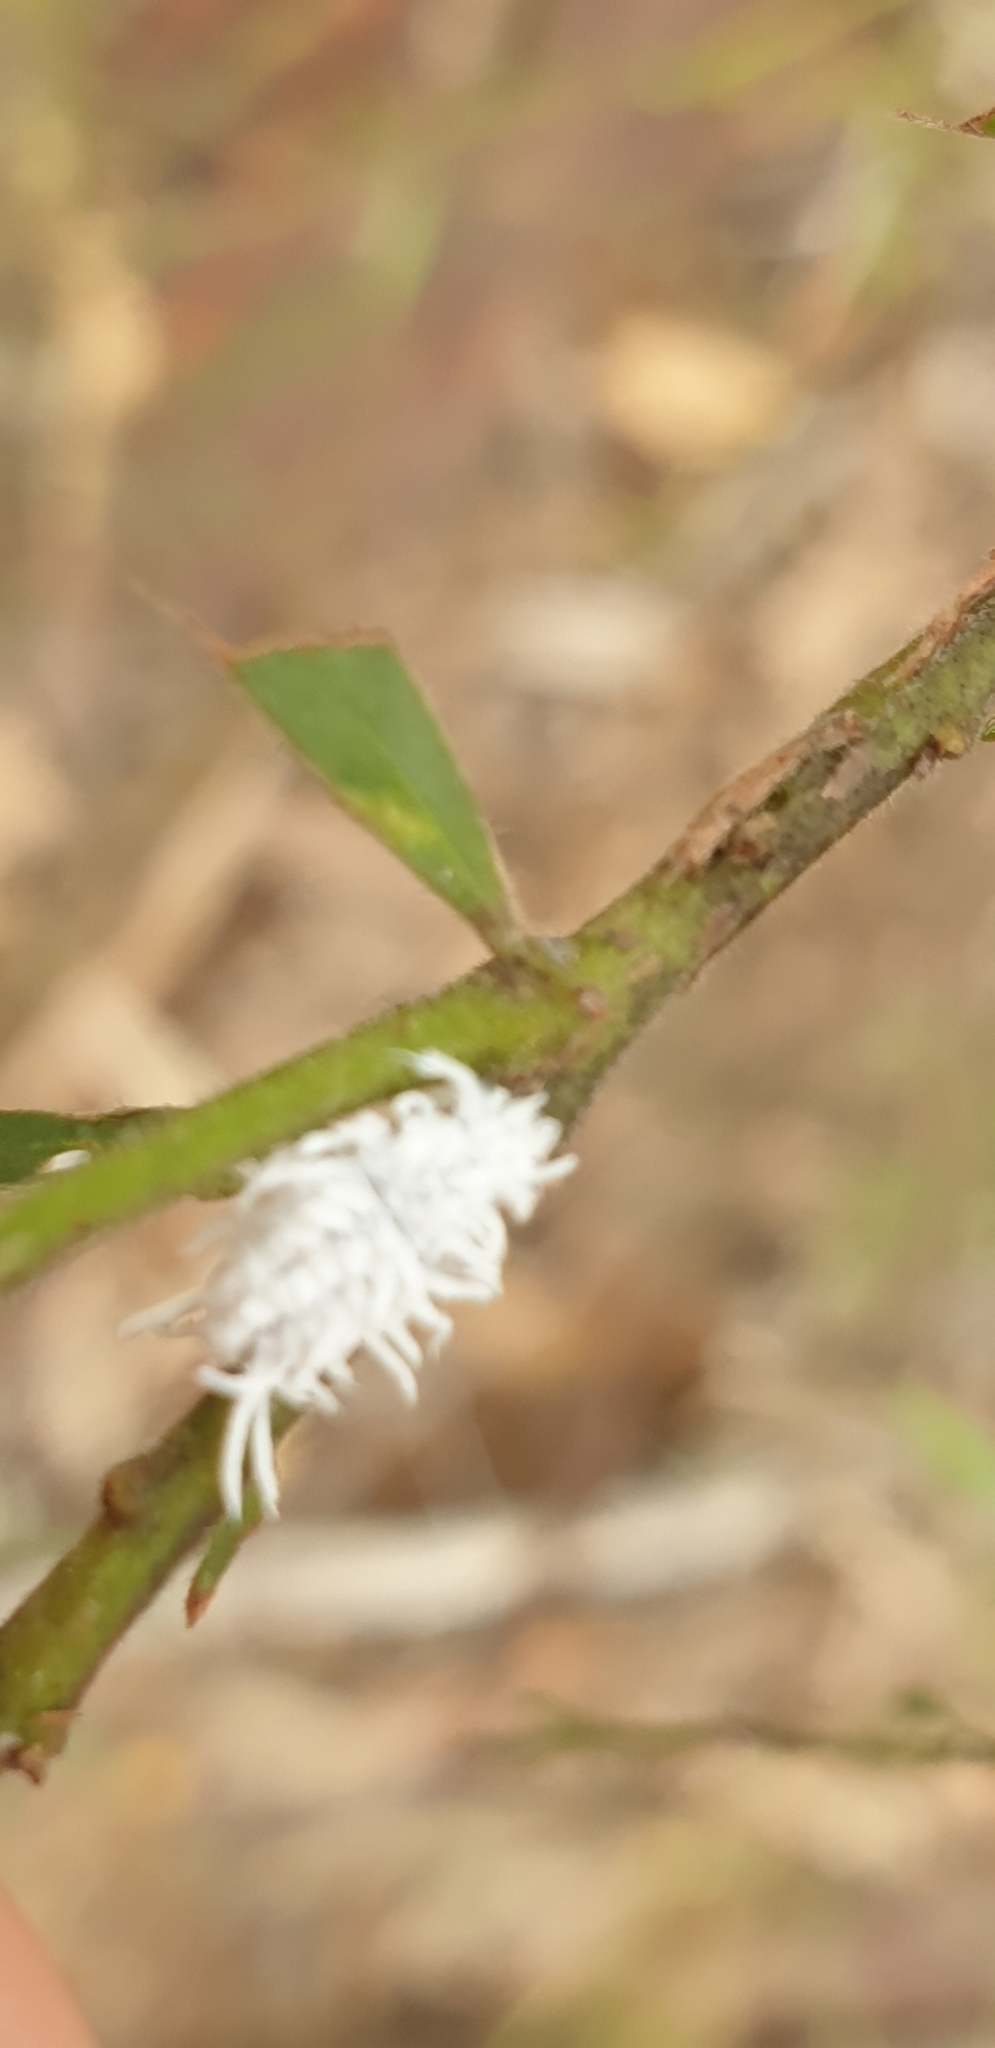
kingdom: Animalia
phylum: Arthropoda
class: Insecta
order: Coleoptera
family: Coccinellidae
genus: Cryptolaemus
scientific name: Cryptolaemus montrouzieri
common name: Mealybug destroyer
